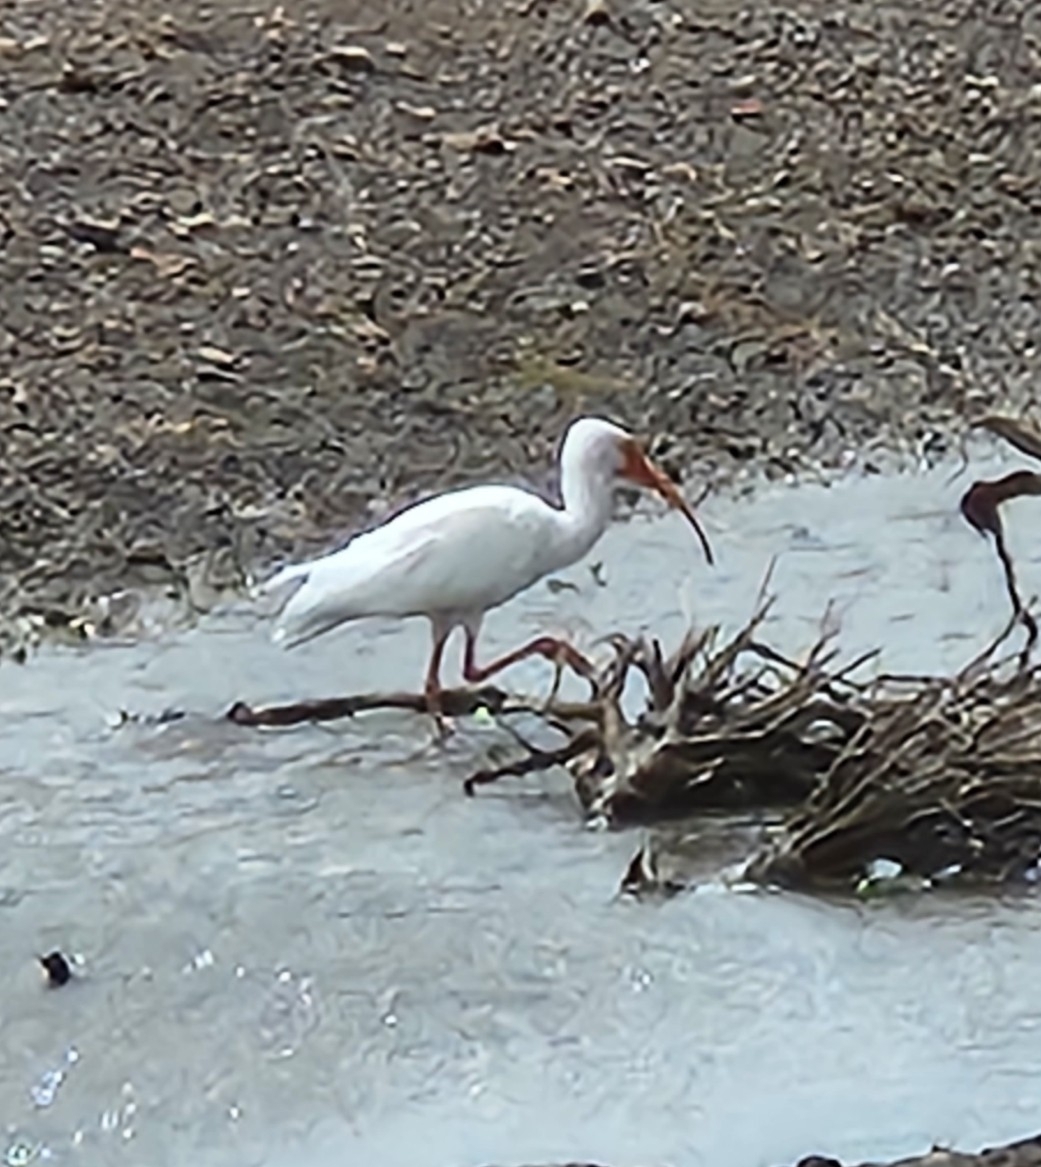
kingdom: Animalia
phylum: Chordata
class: Aves
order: Pelecaniformes
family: Threskiornithidae
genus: Eudocimus
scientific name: Eudocimus albus
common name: White ibis
